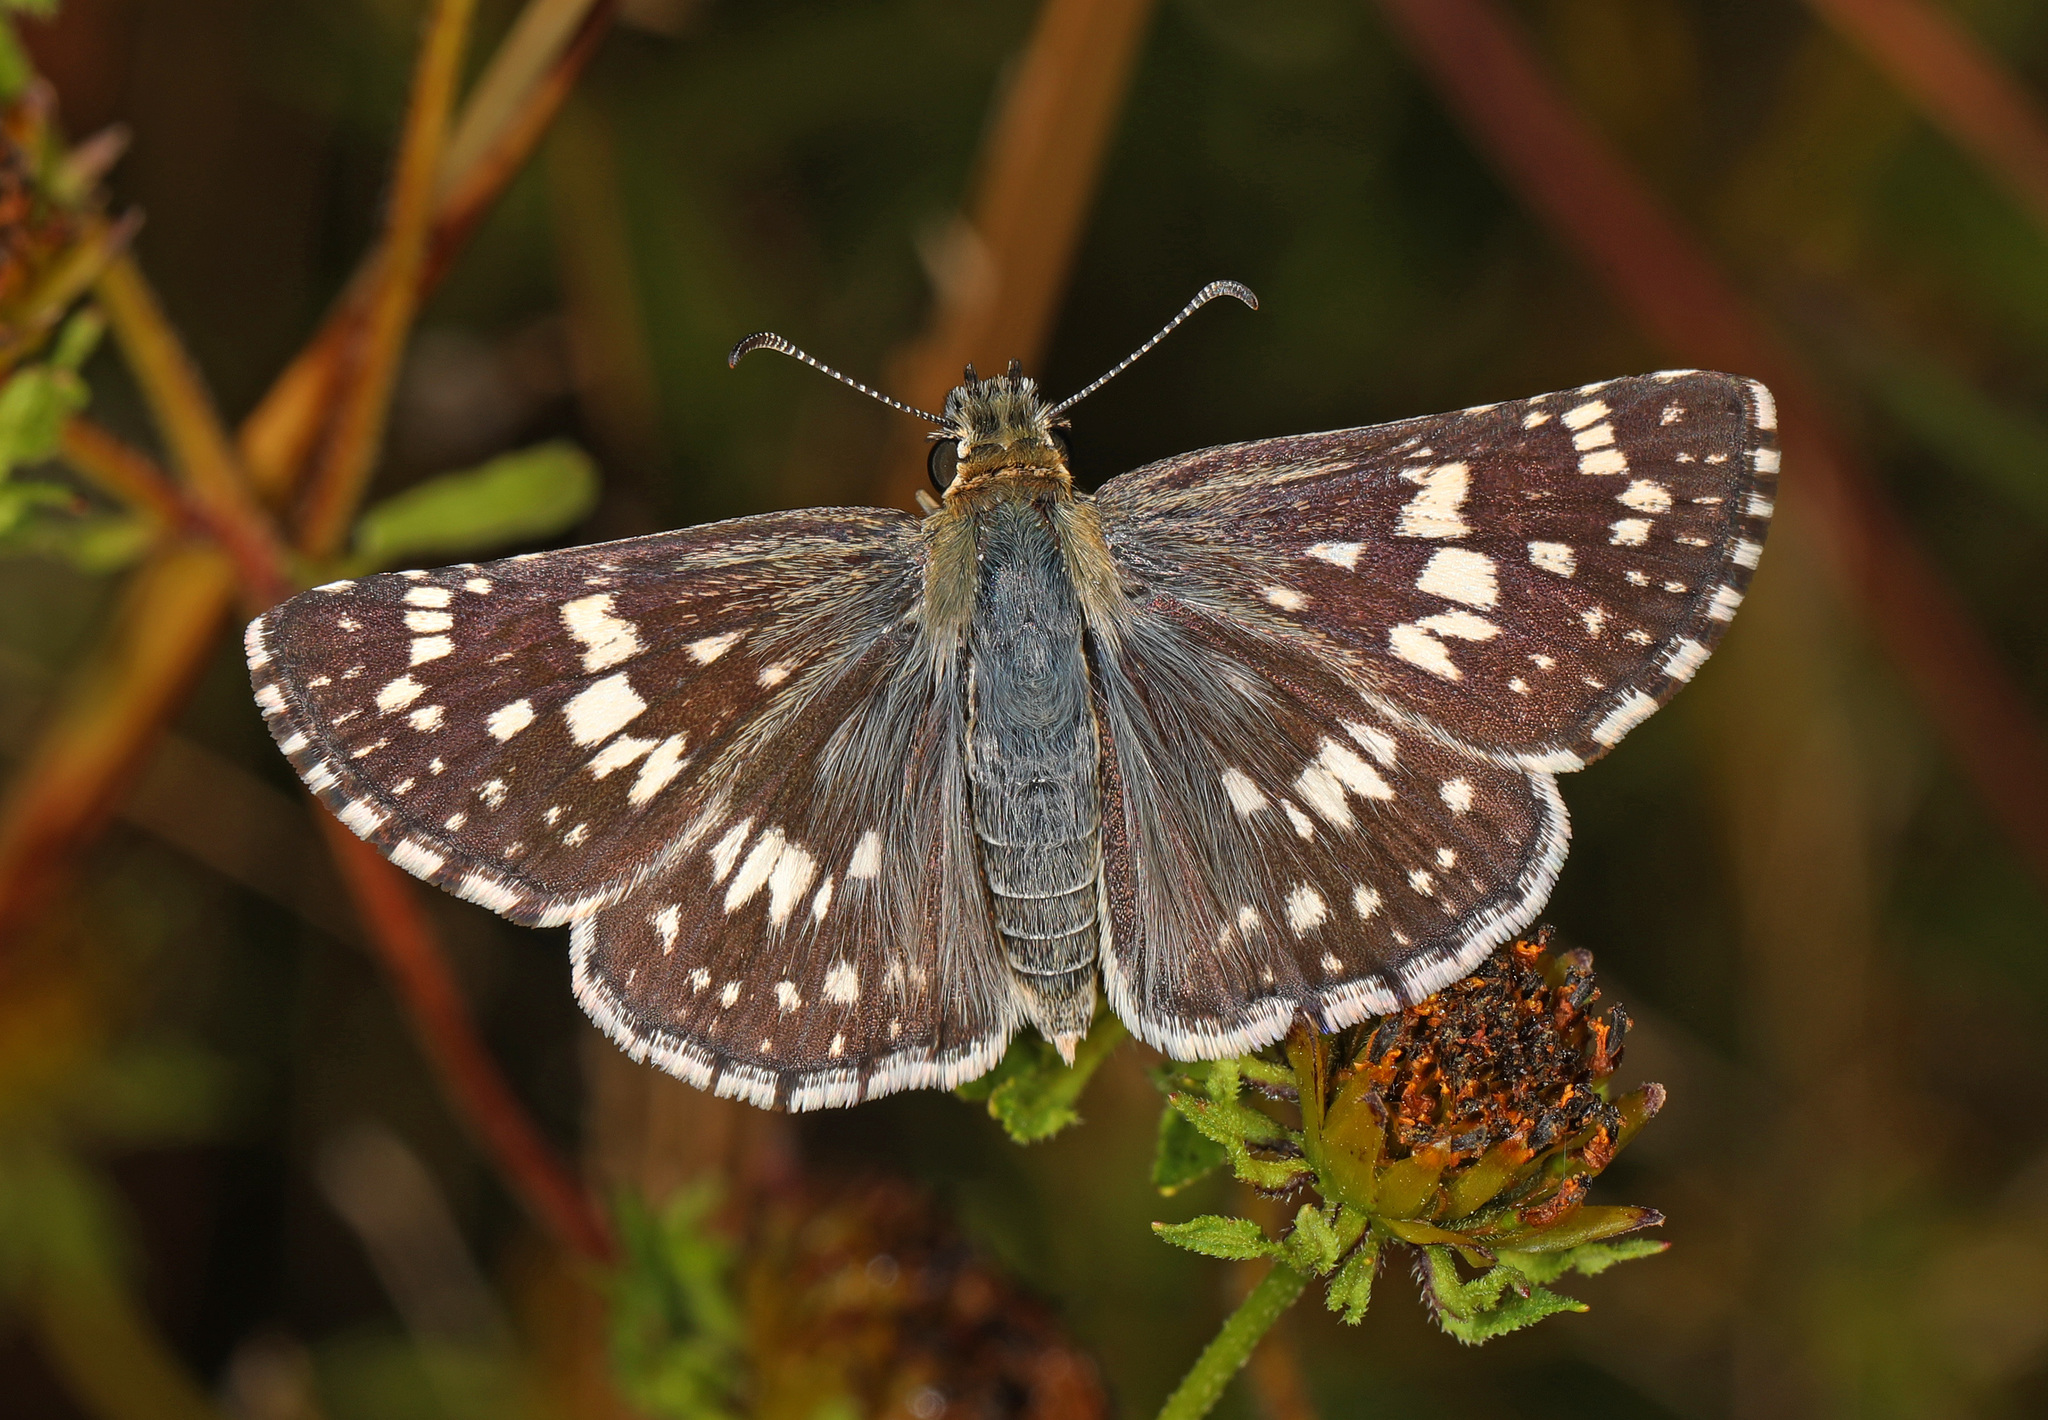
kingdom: Animalia
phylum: Arthropoda
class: Insecta
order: Lepidoptera
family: Hesperiidae
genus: Burnsius
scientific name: Burnsius communis
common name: Common checkered-skipper
